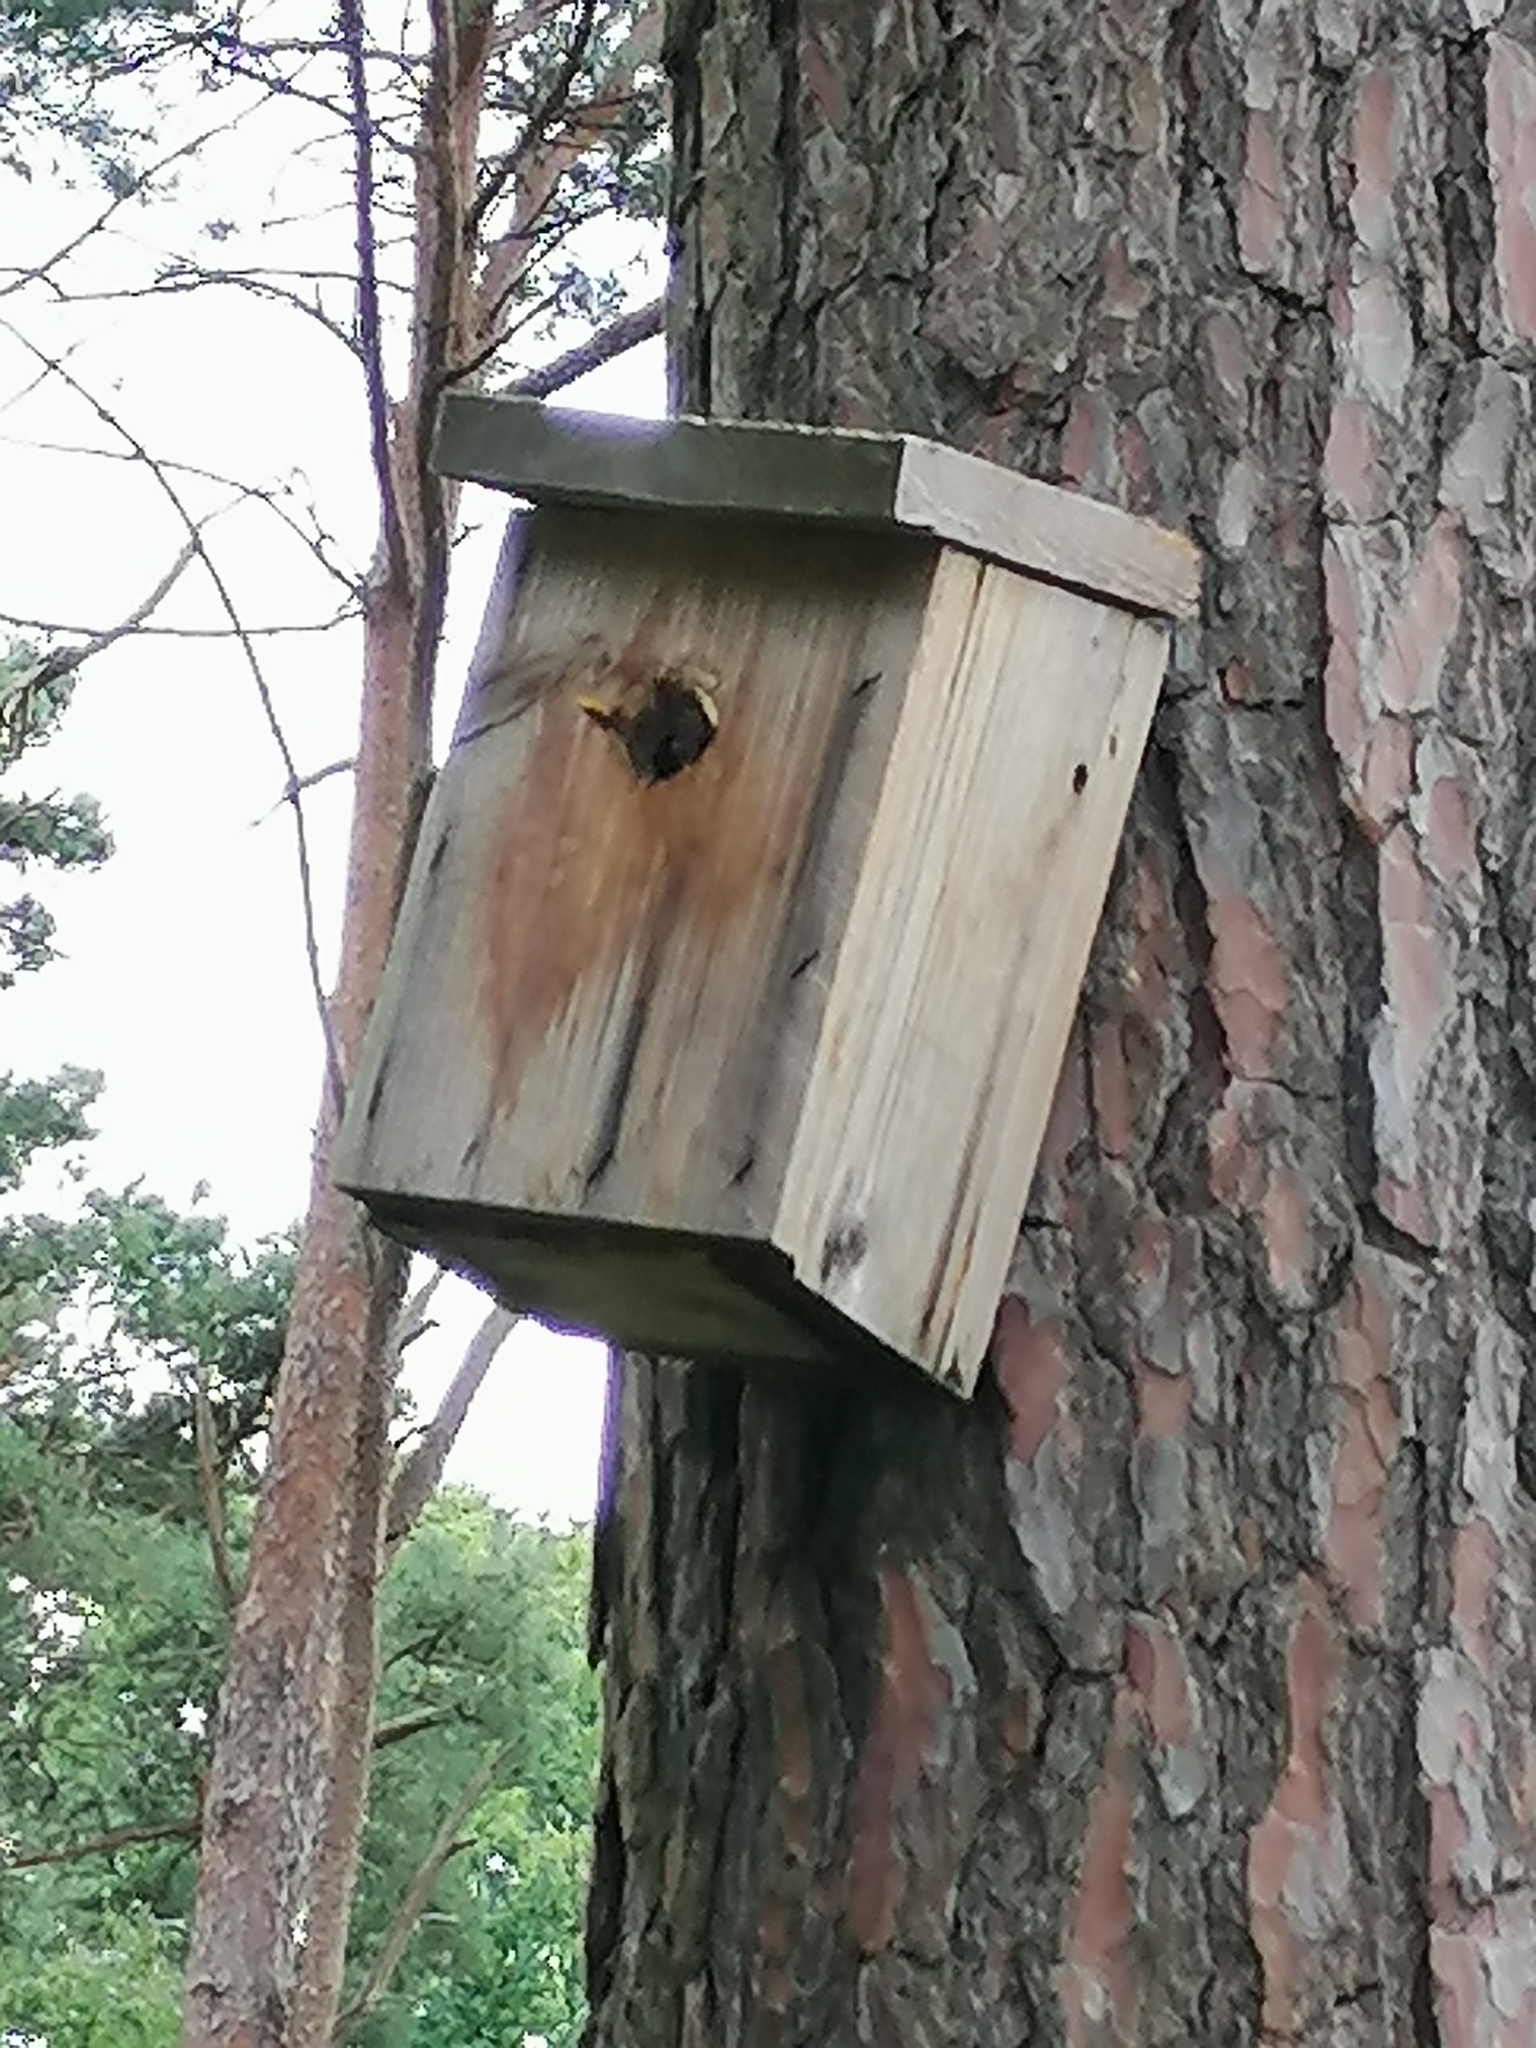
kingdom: Animalia
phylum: Arthropoda
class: Insecta
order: Hymenoptera
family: Vespidae
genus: Vespa
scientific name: Vespa crabro
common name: Hornet
